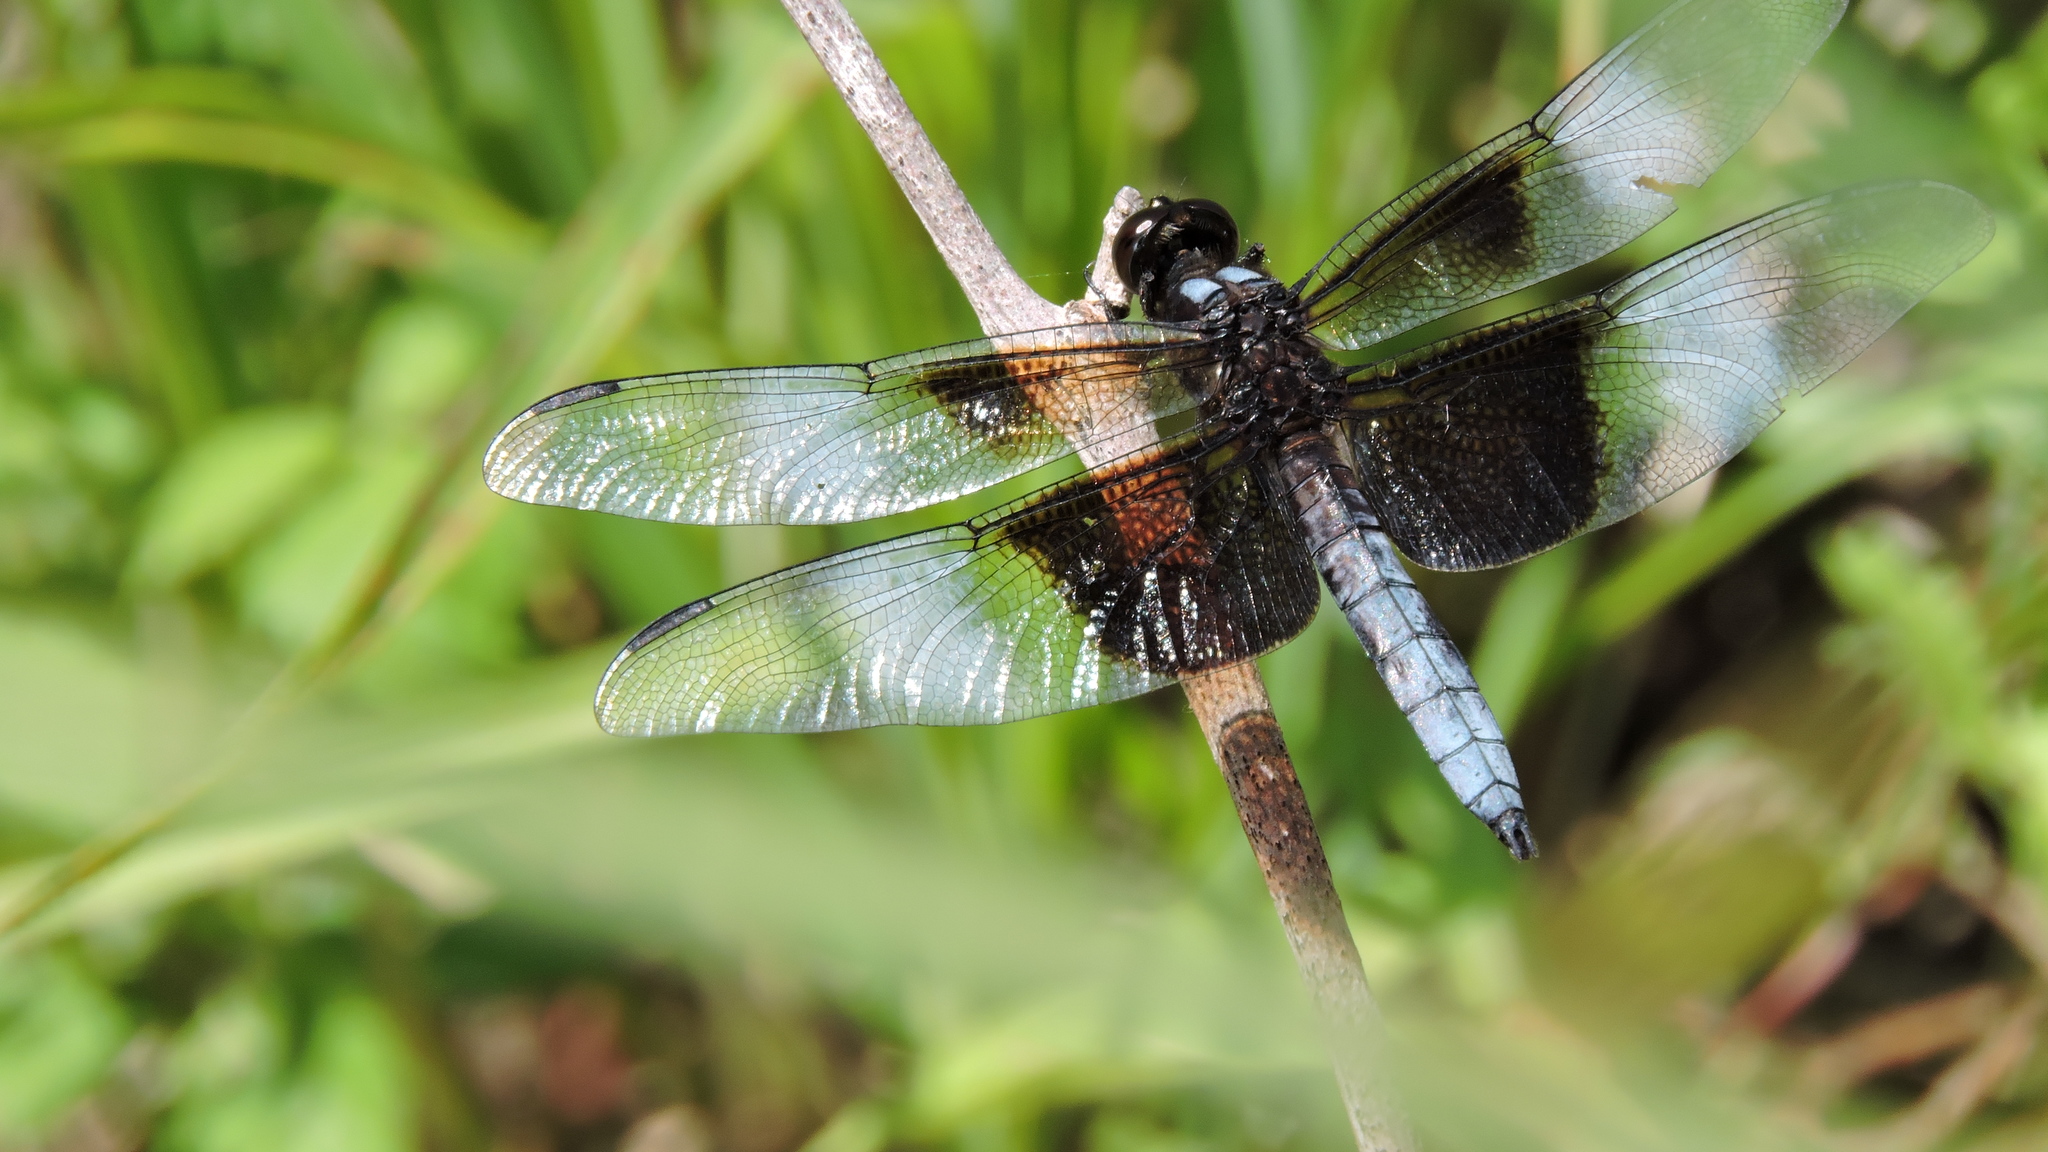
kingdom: Animalia
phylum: Arthropoda
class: Insecta
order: Odonata
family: Libellulidae
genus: Libellula
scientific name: Libellula luctuosa
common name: Widow skimmer
